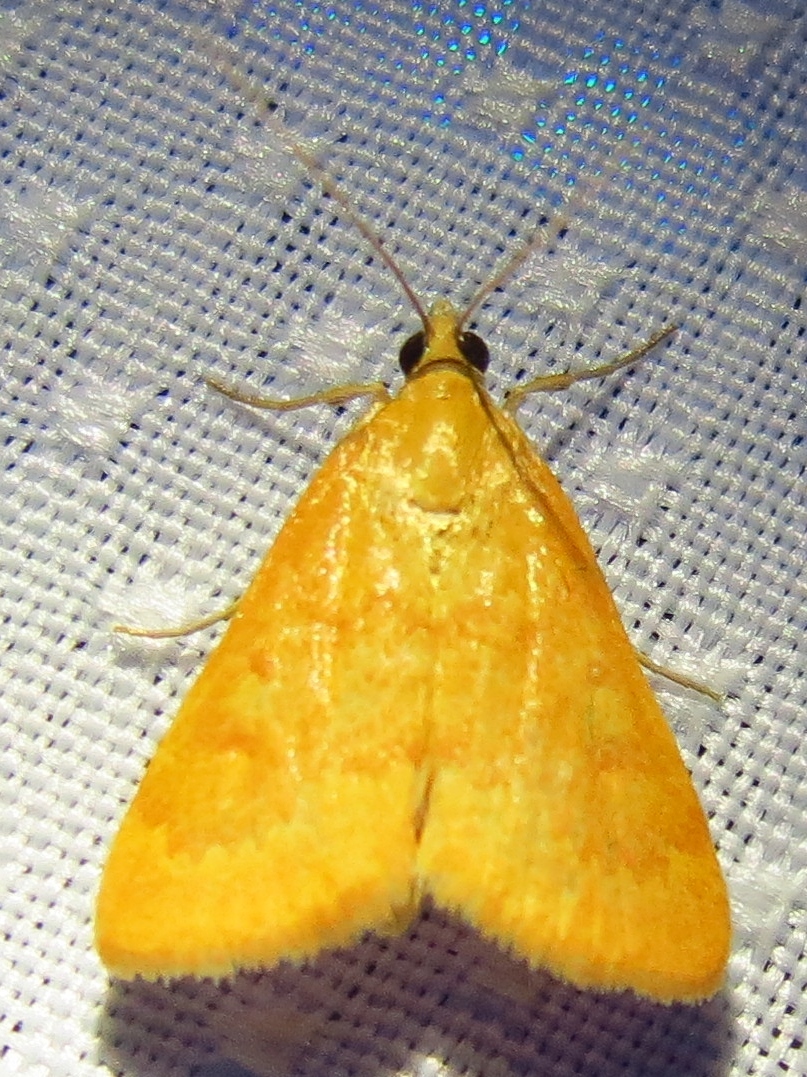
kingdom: Animalia
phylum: Arthropoda
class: Insecta
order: Lepidoptera
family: Crambidae
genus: Achyra
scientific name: Achyra rantalis
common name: Garden webworm
